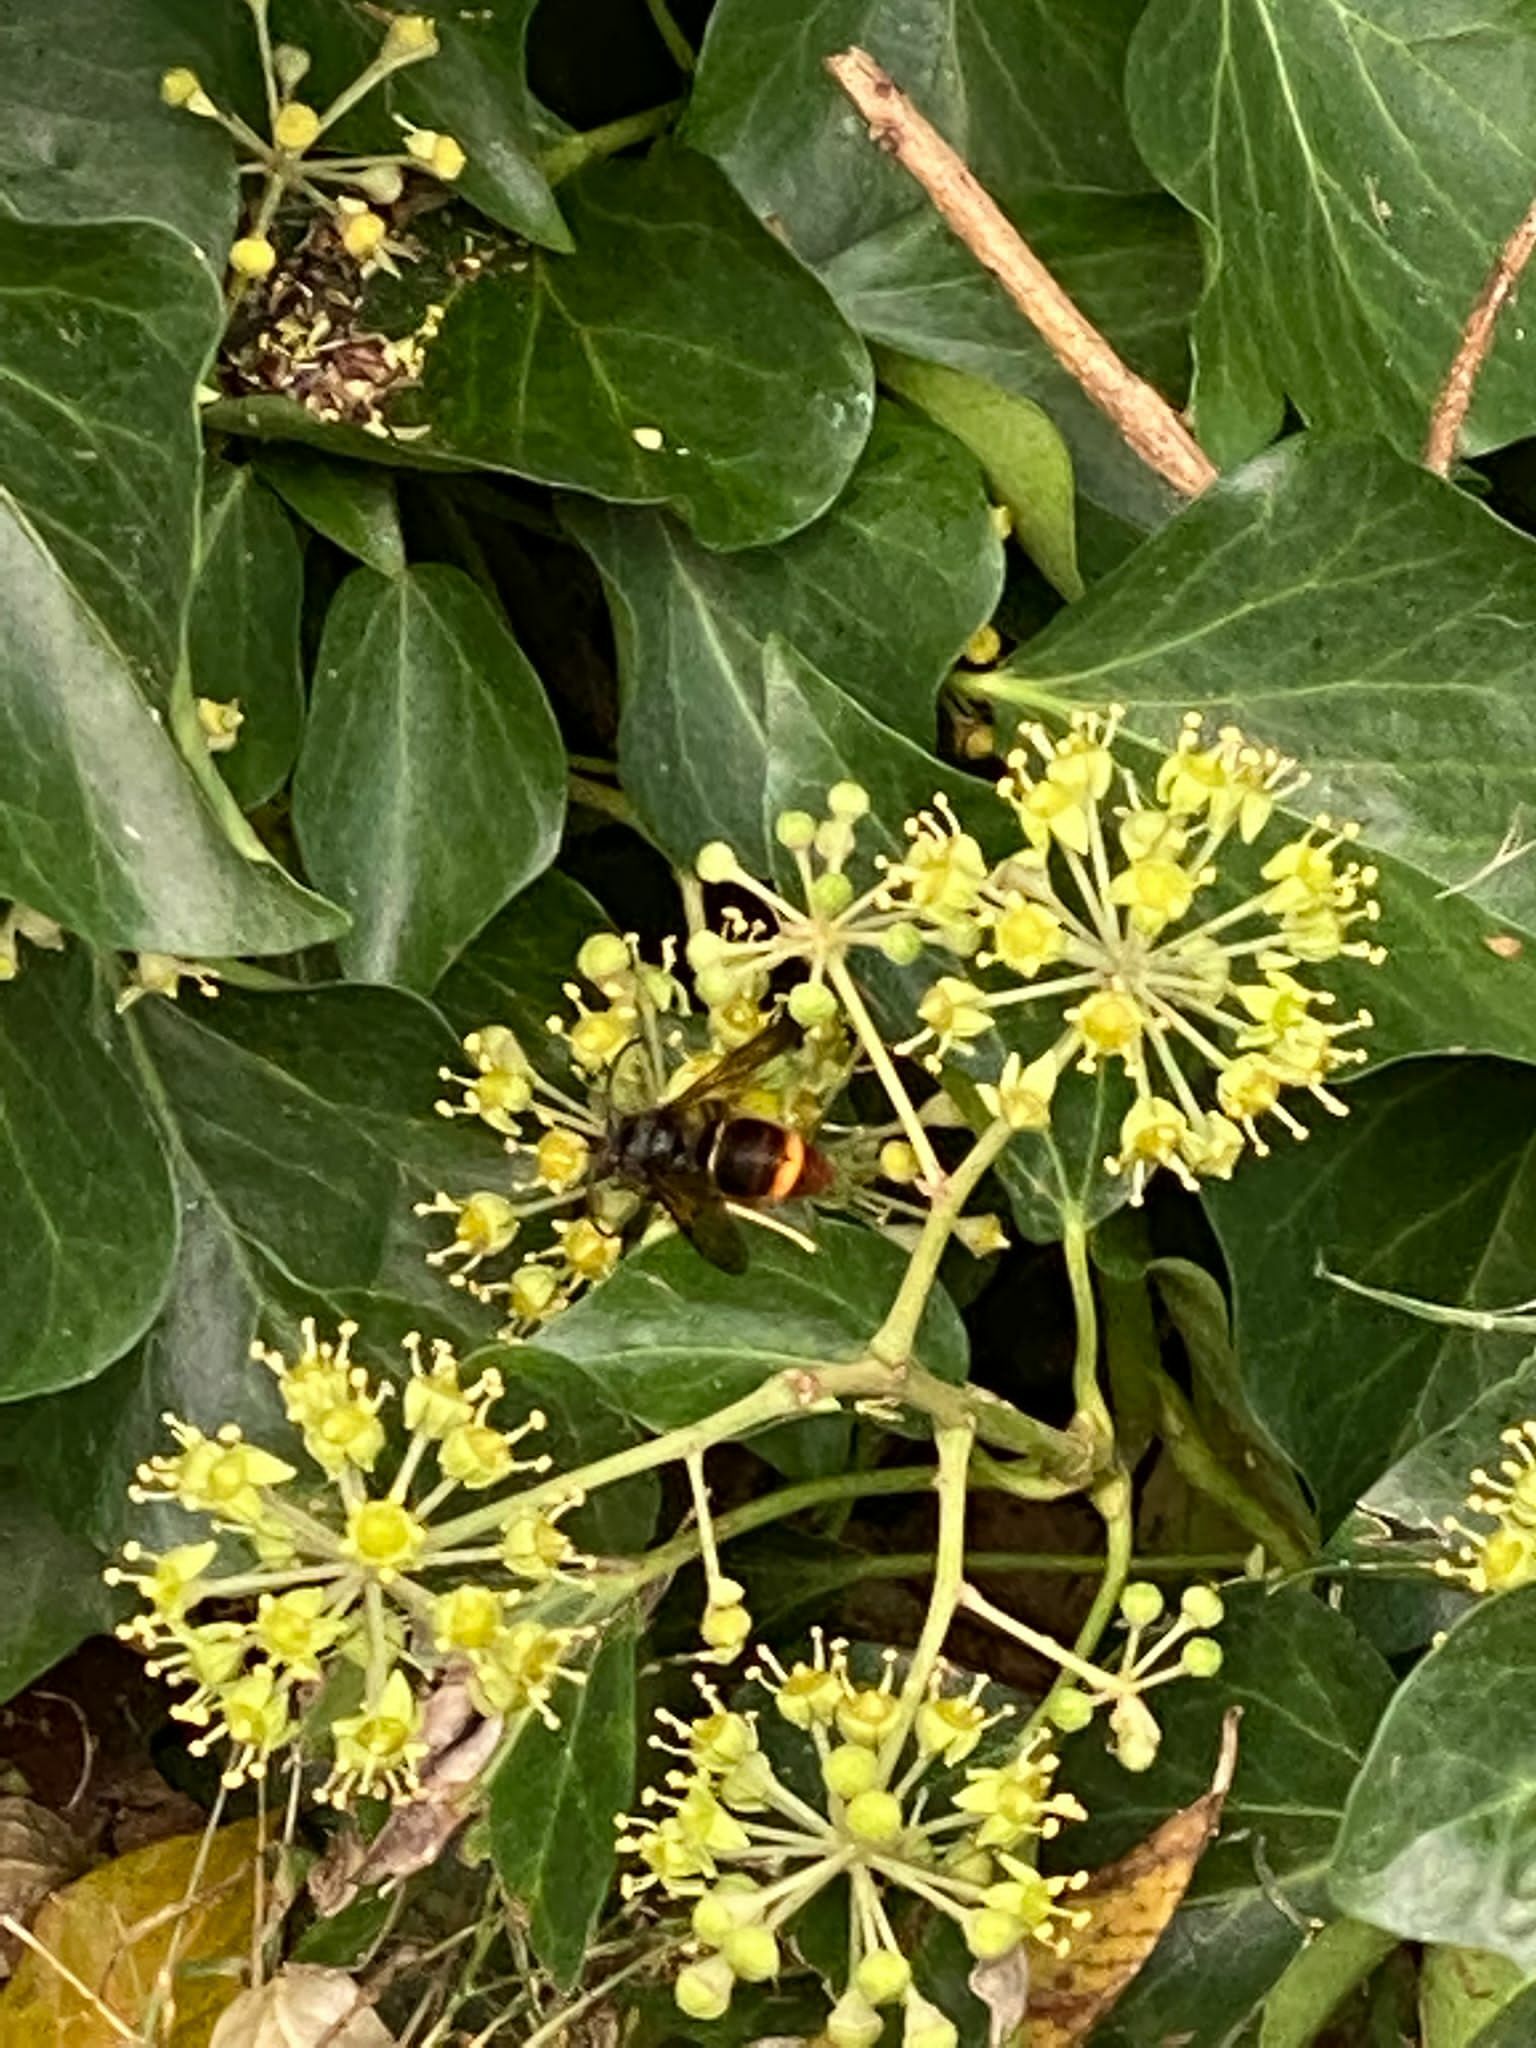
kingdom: Animalia
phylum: Arthropoda
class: Insecta
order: Hymenoptera
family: Vespidae
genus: Vespa
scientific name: Vespa velutina
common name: Asian hornet
